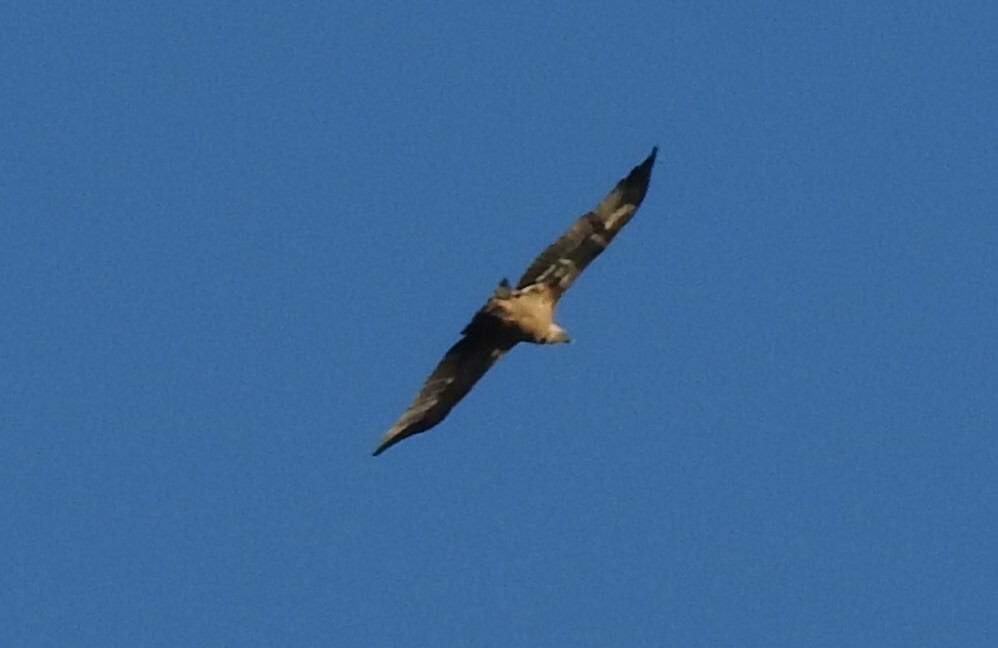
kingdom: Animalia
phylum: Chordata
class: Aves
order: Accipitriformes
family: Accipitridae
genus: Gyps
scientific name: Gyps fulvus
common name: Griffon vulture
